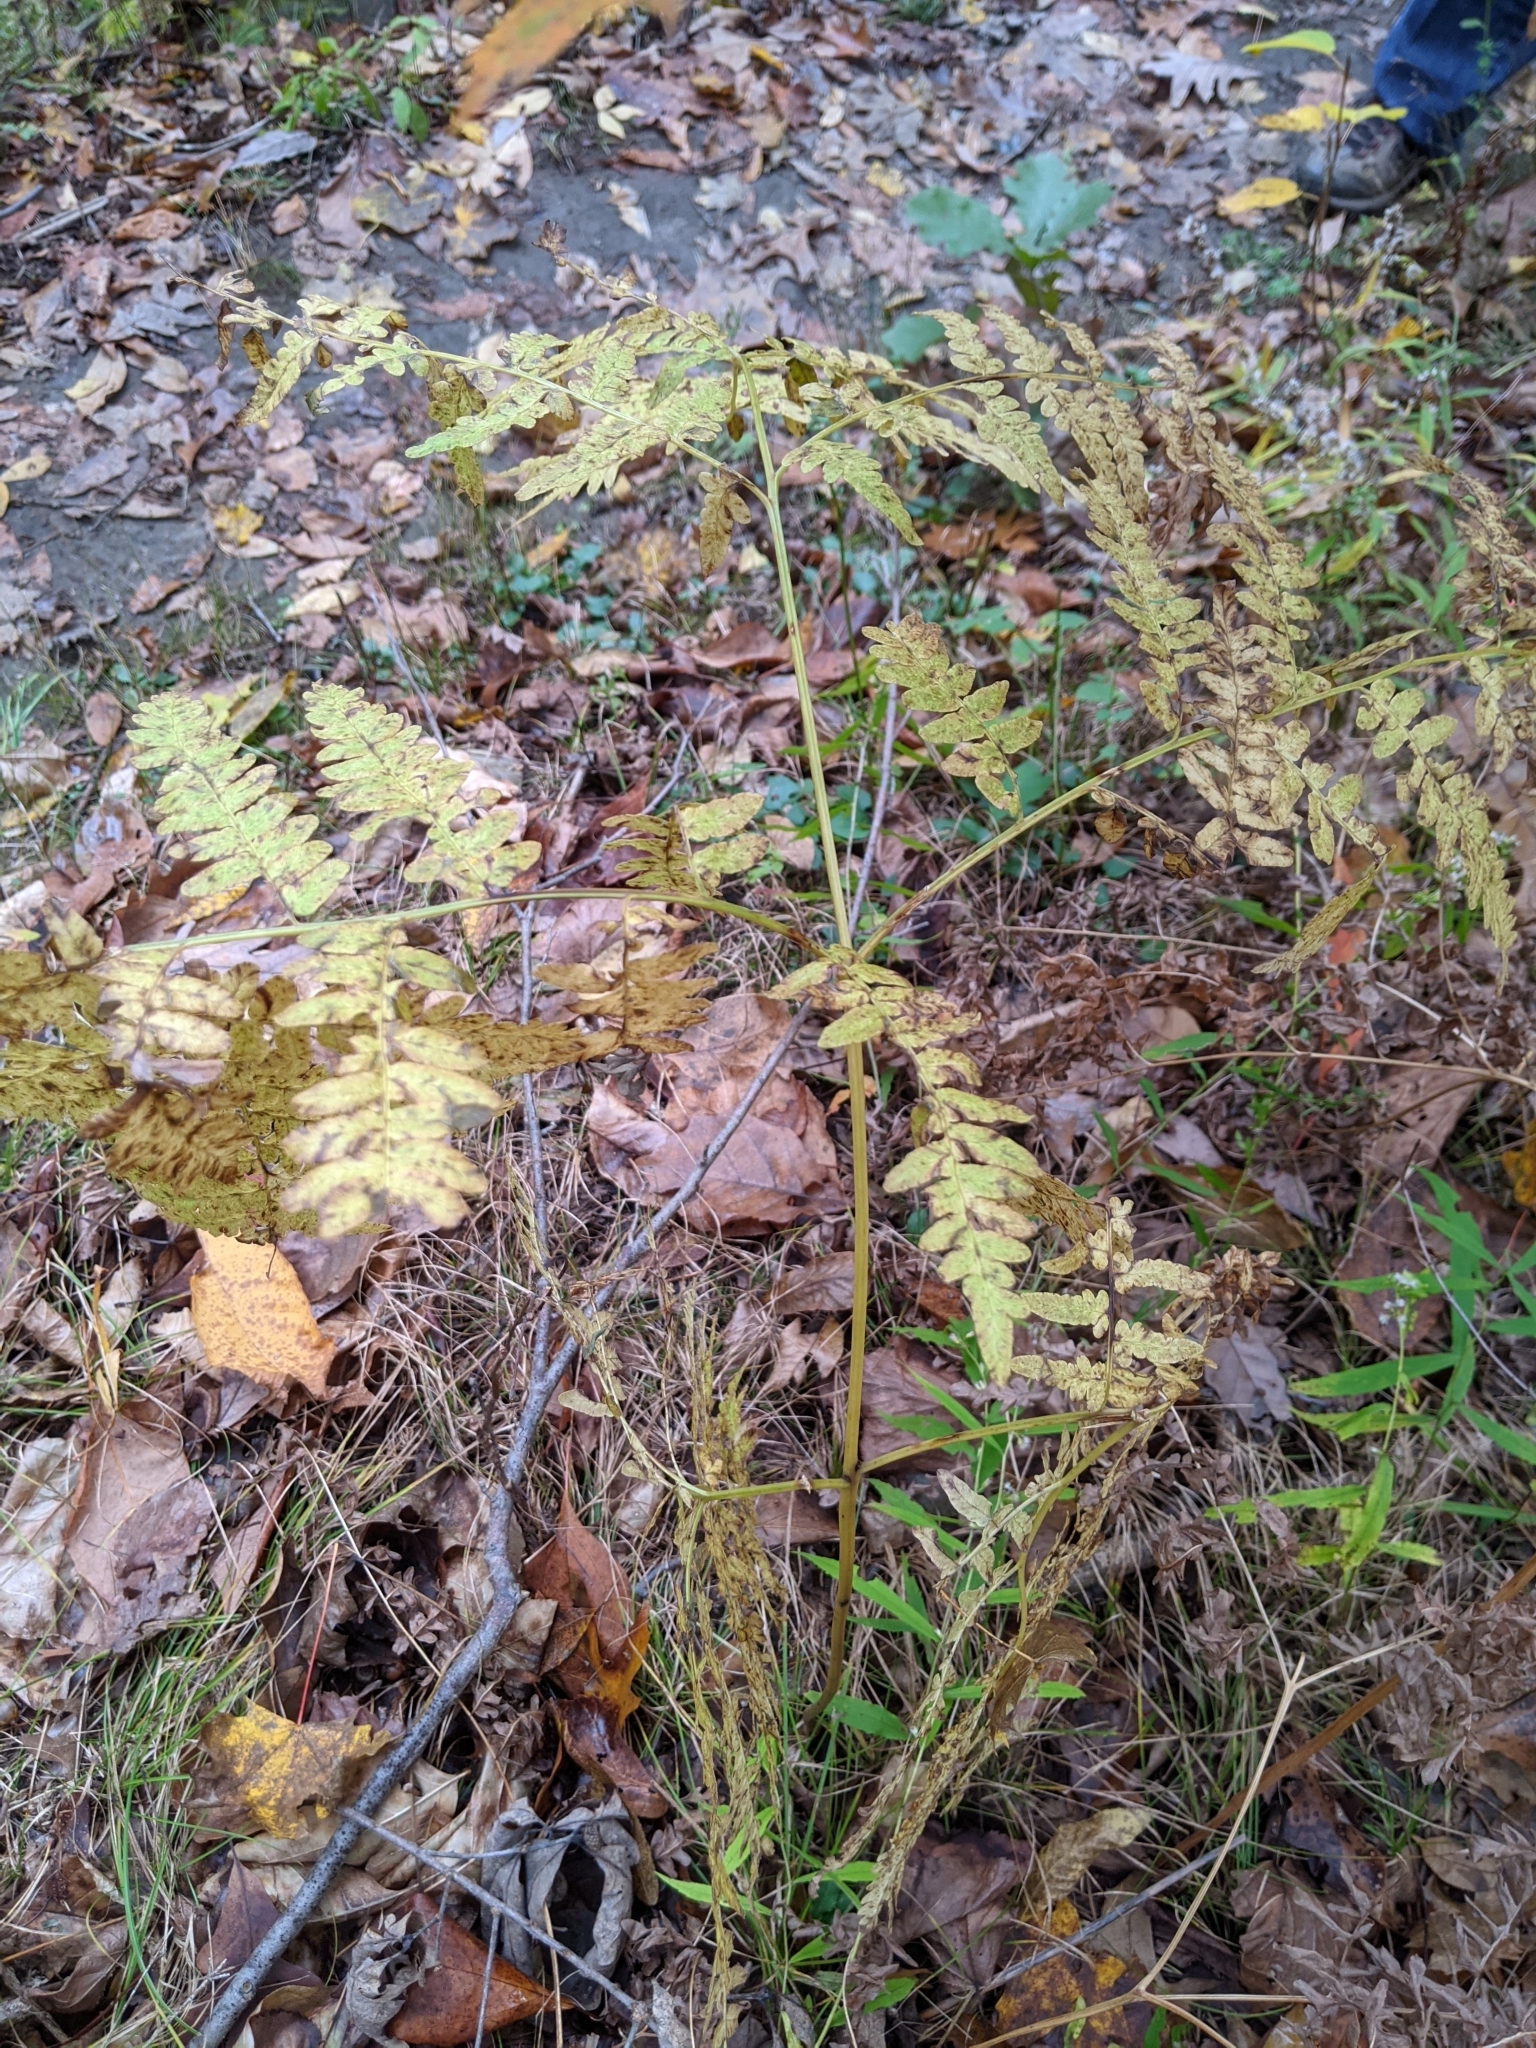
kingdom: Plantae
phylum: Tracheophyta
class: Polypodiopsida
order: Polypodiales
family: Dennstaedtiaceae
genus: Pteridium
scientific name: Pteridium aquilinum
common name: Bracken
